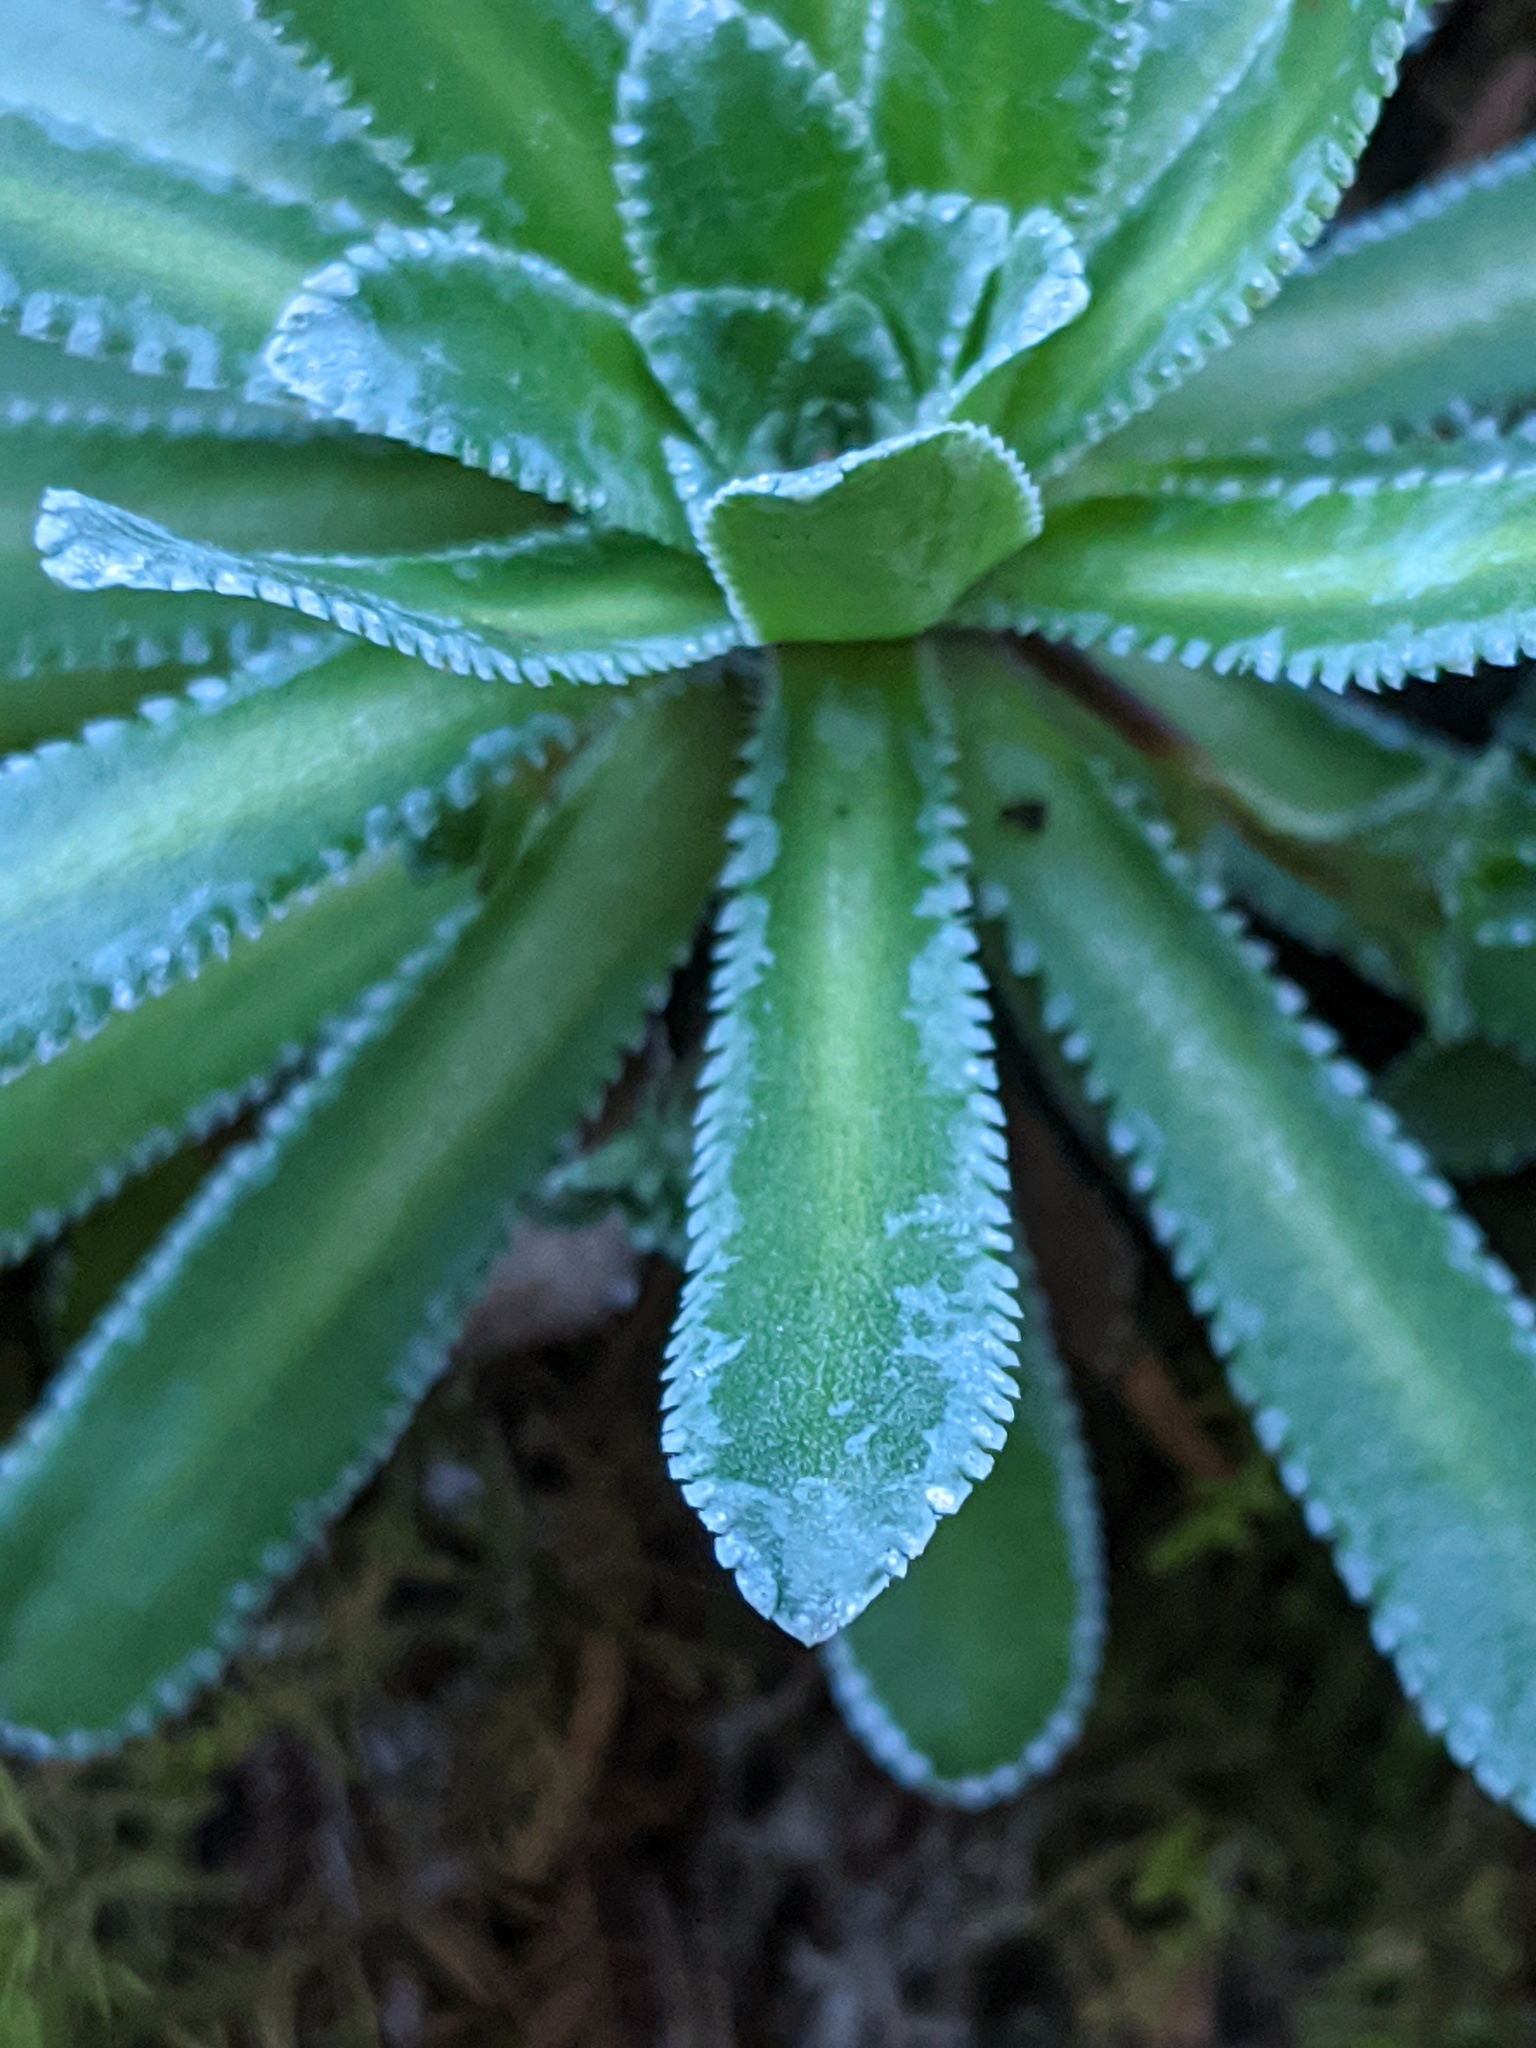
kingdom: Plantae
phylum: Tracheophyta
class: Magnoliopsida
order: Saxifragales
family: Saxifragaceae
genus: Saxifraga
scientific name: Saxifraga paniculata
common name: Livelong saxifrage
